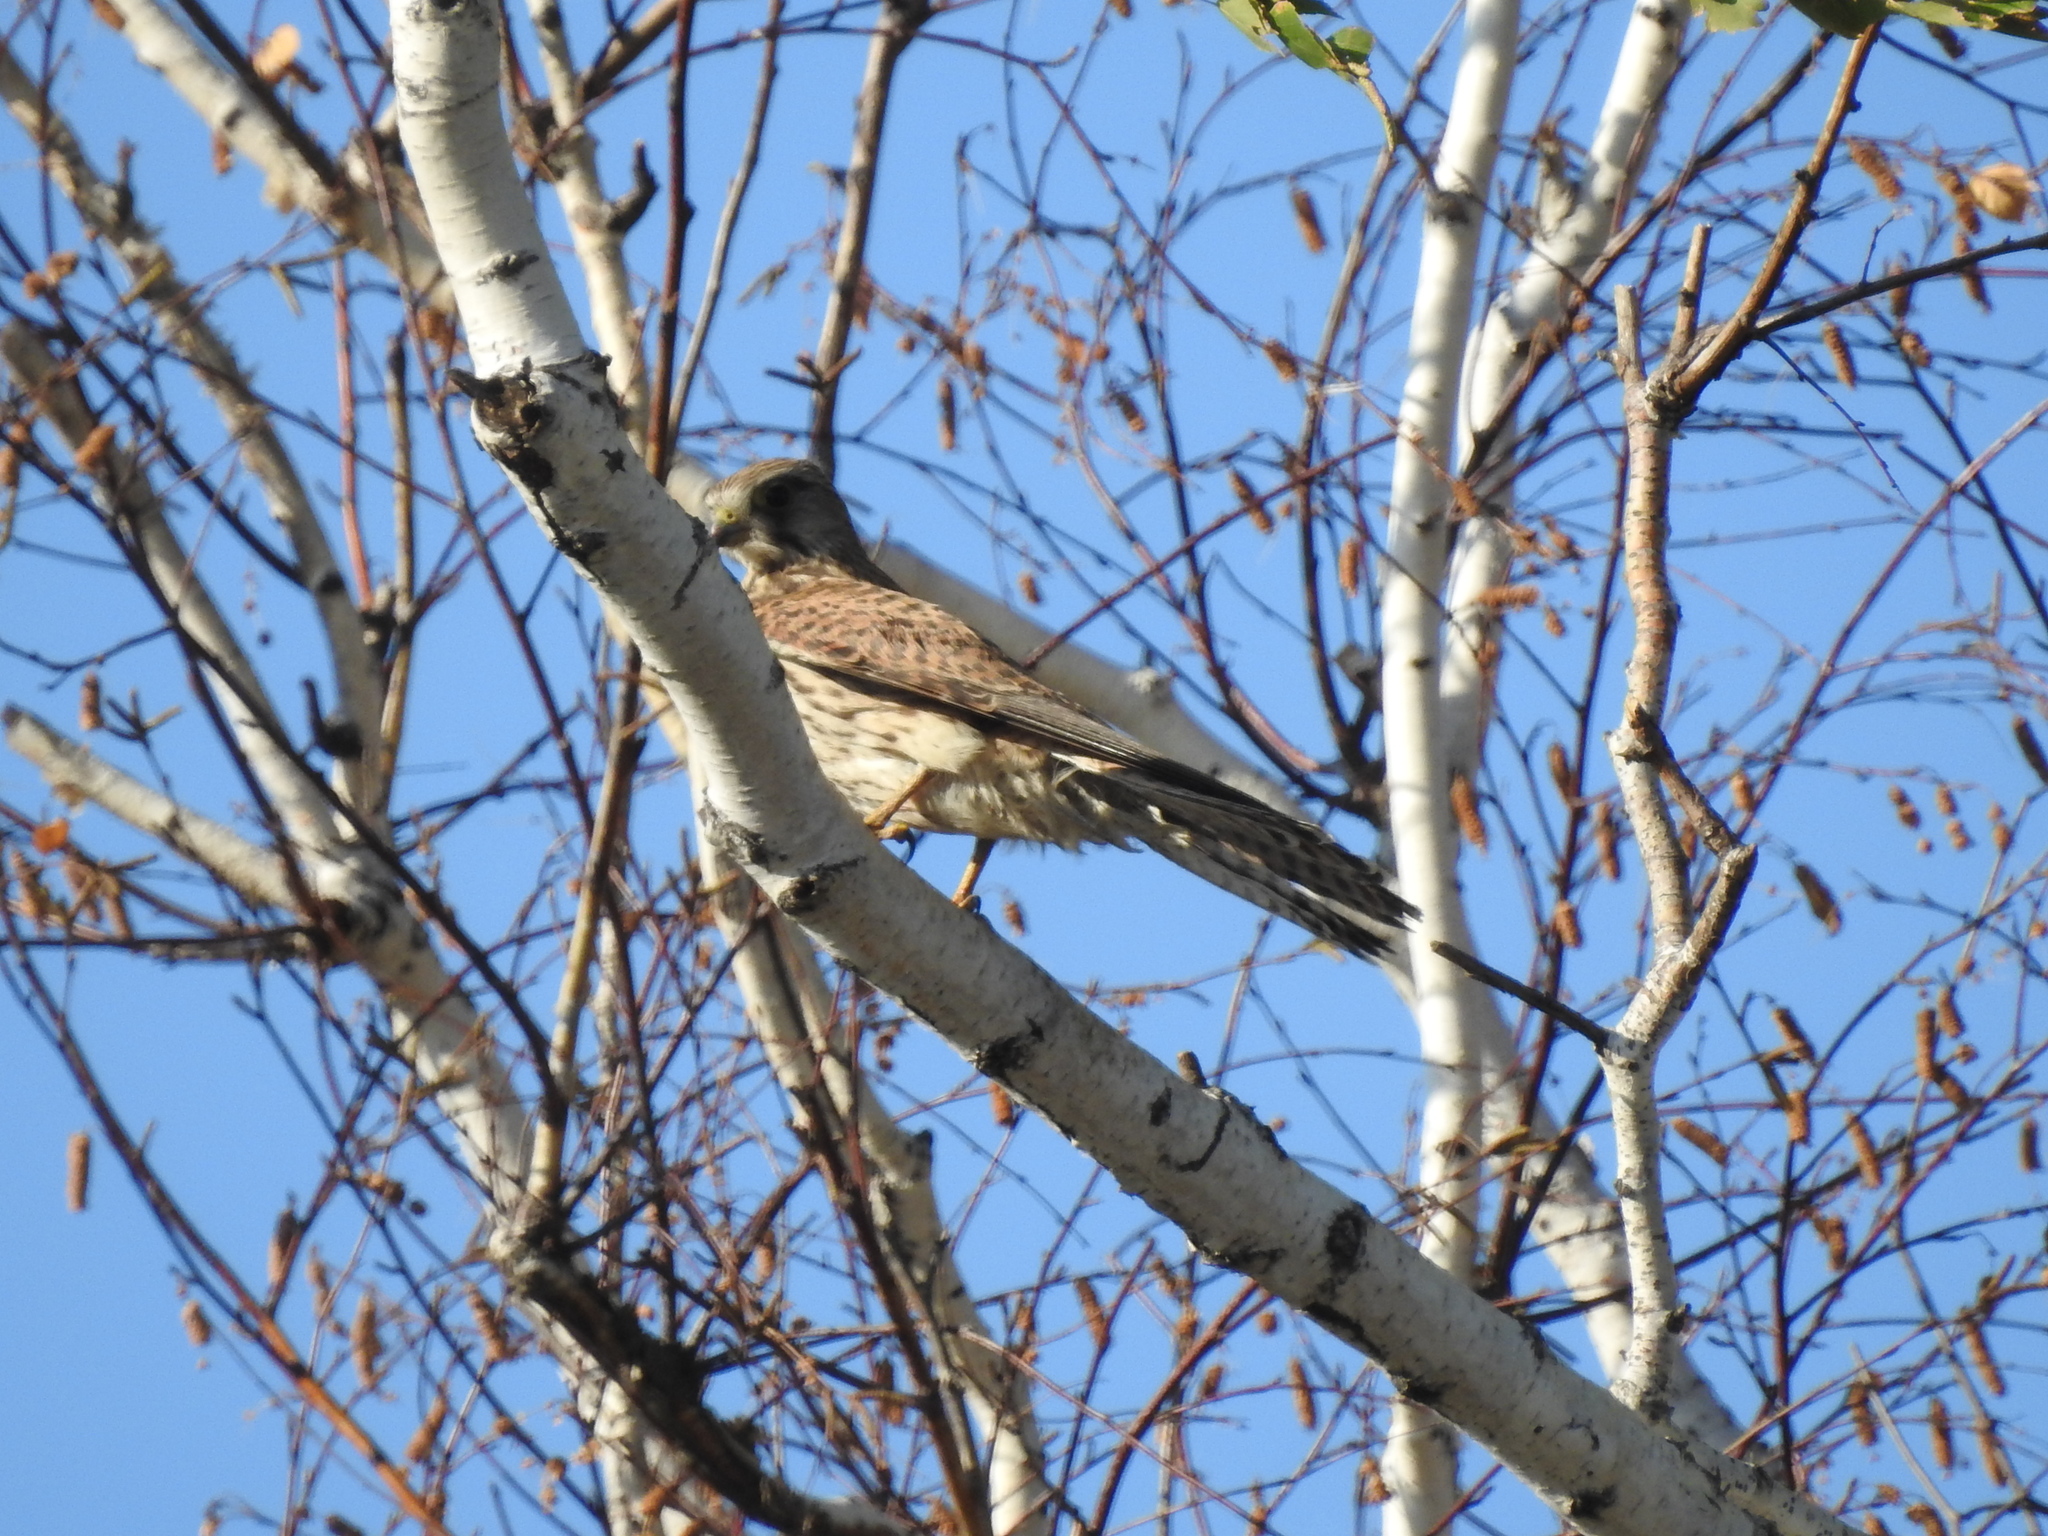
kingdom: Animalia
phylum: Chordata
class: Aves
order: Falconiformes
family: Falconidae
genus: Falco
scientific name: Falco tinnunculus
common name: Common kestrel
